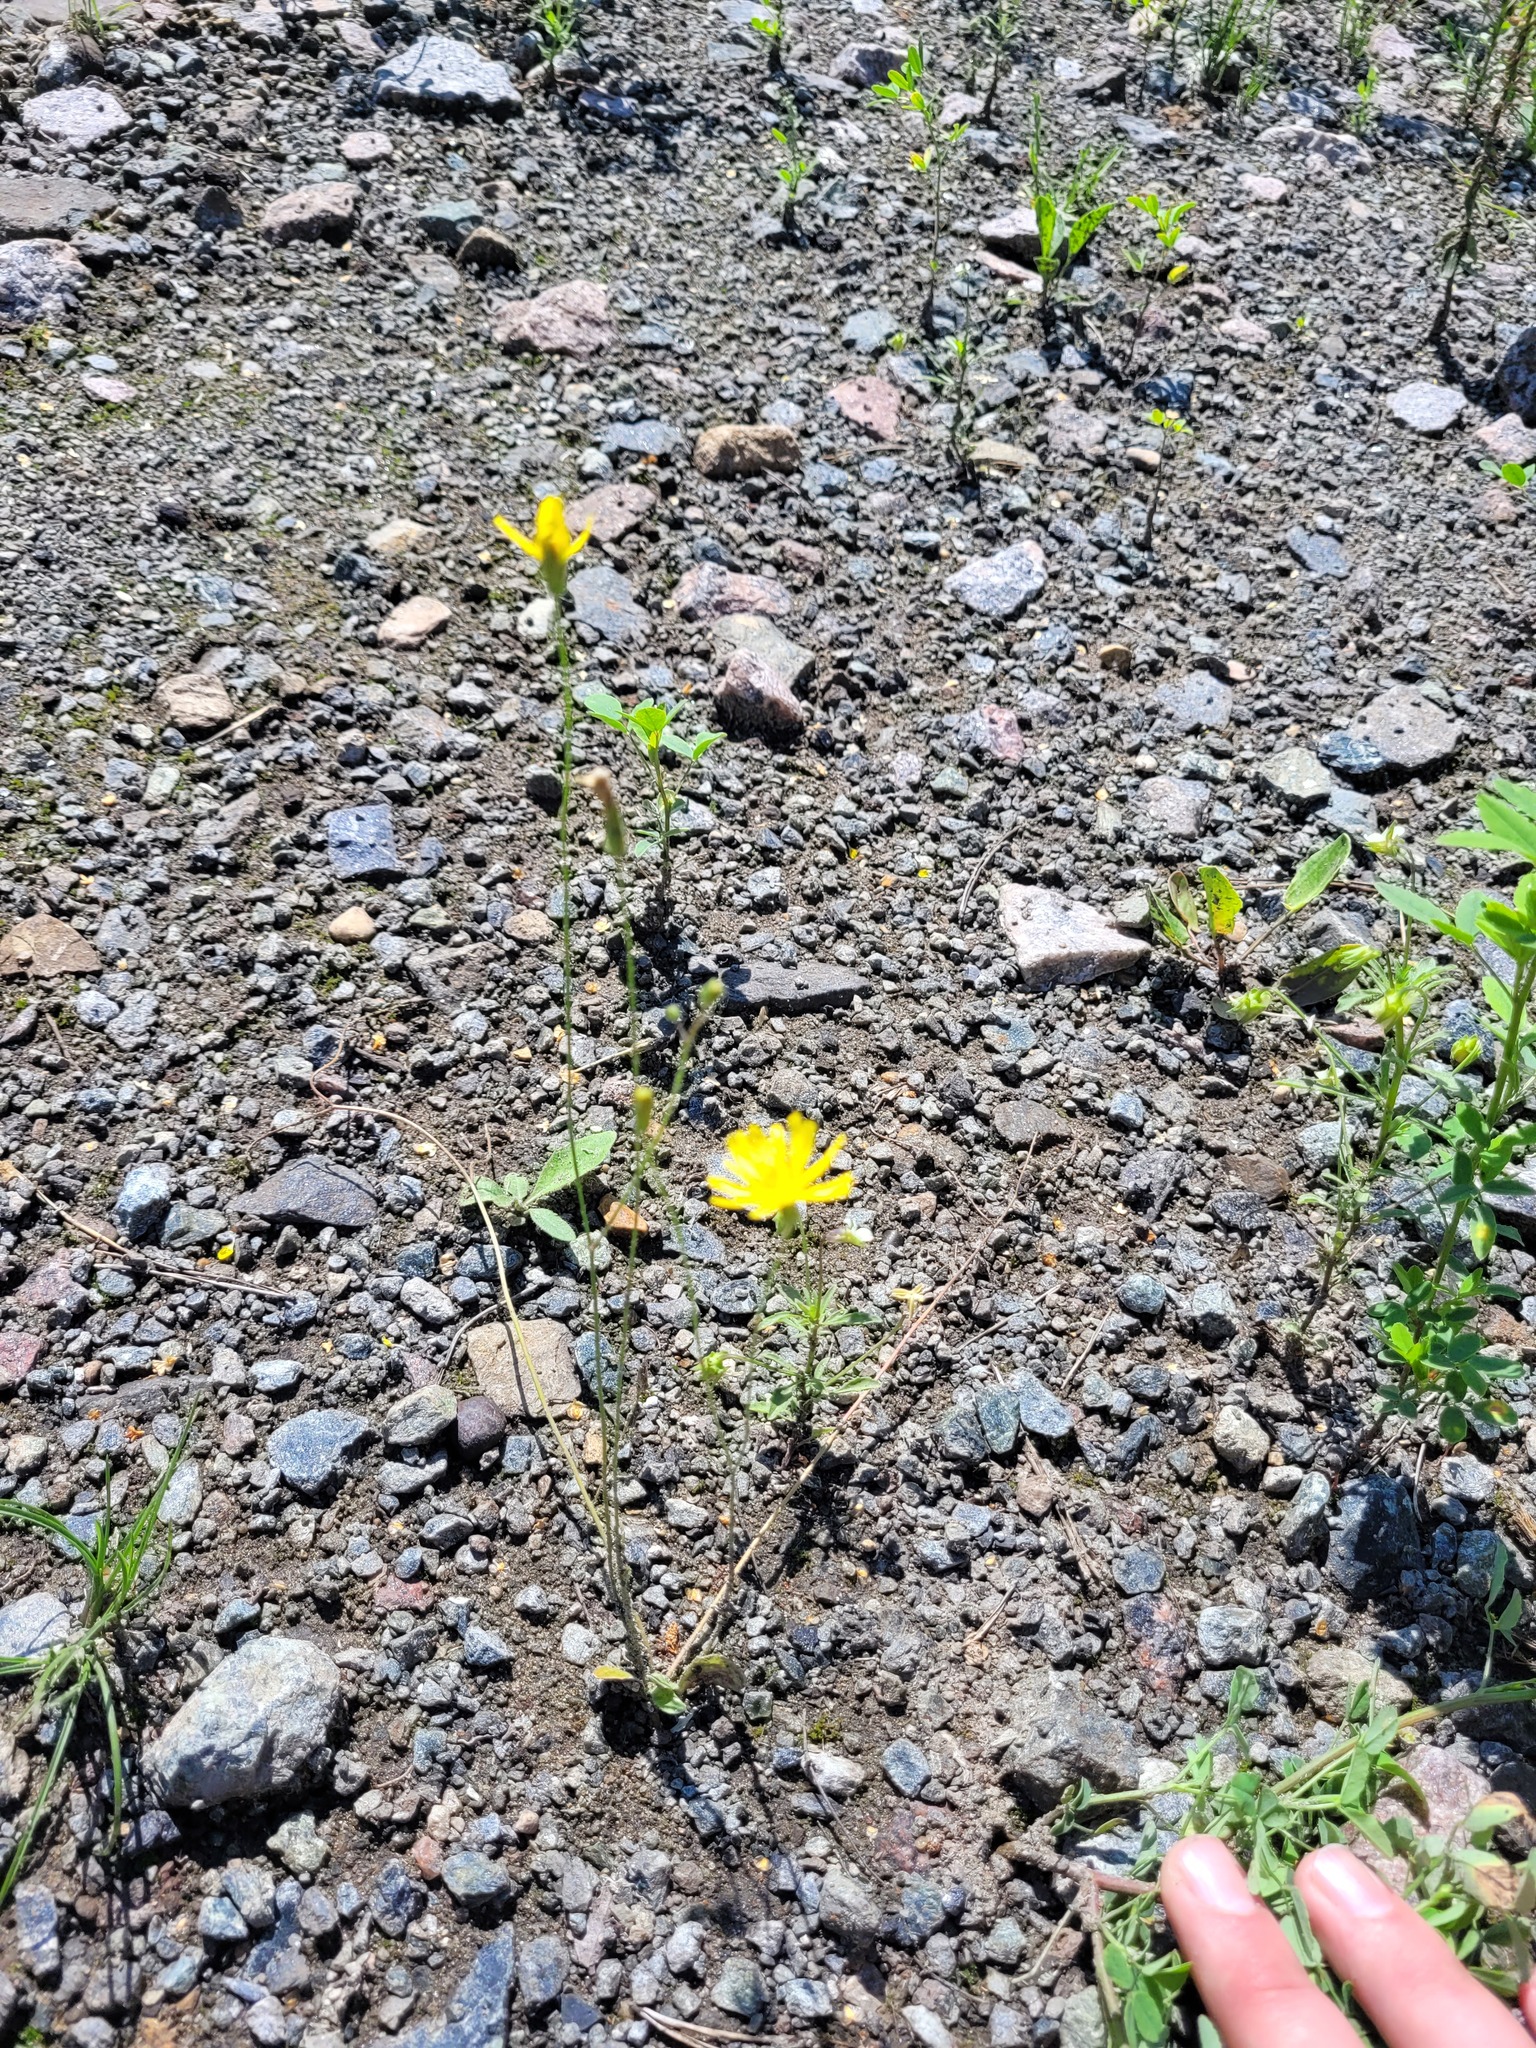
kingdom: Plantae
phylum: Tracheophyta
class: Magnoliopsida
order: Asterales
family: Asteraceae
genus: Crepis
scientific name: Crepis sancta
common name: Hawk's-beard
